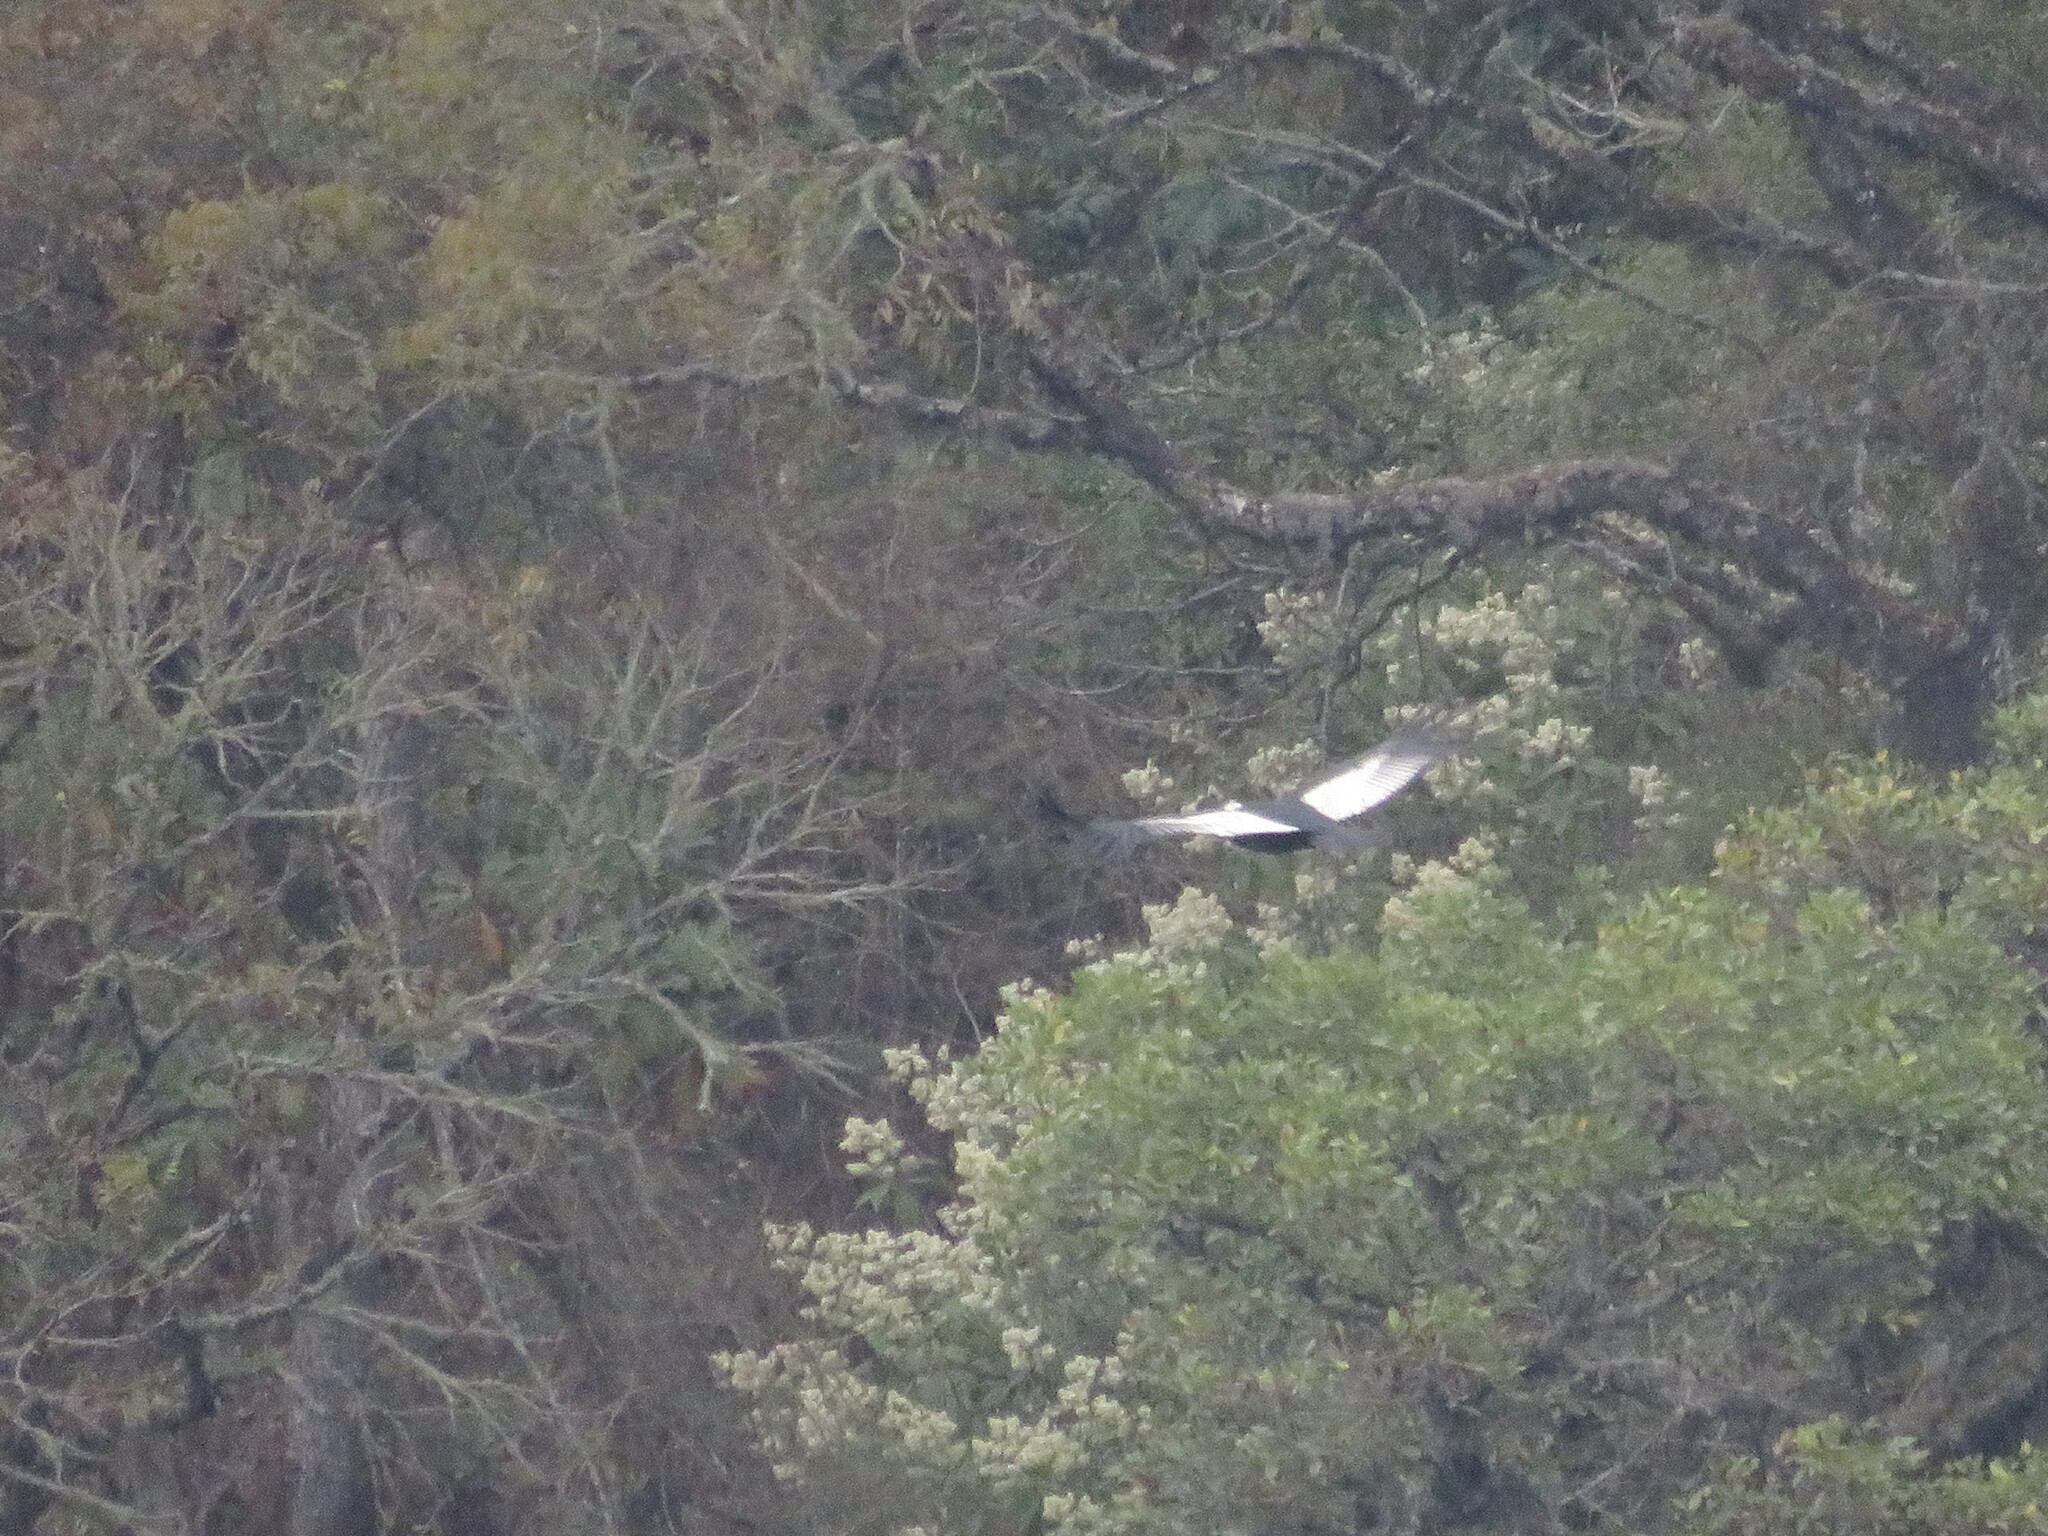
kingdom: Animalia
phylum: Chordata
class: Aves
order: Accipitriformes
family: Cathartidae
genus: Vultur
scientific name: Vultur gryphus
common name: Andean condor
